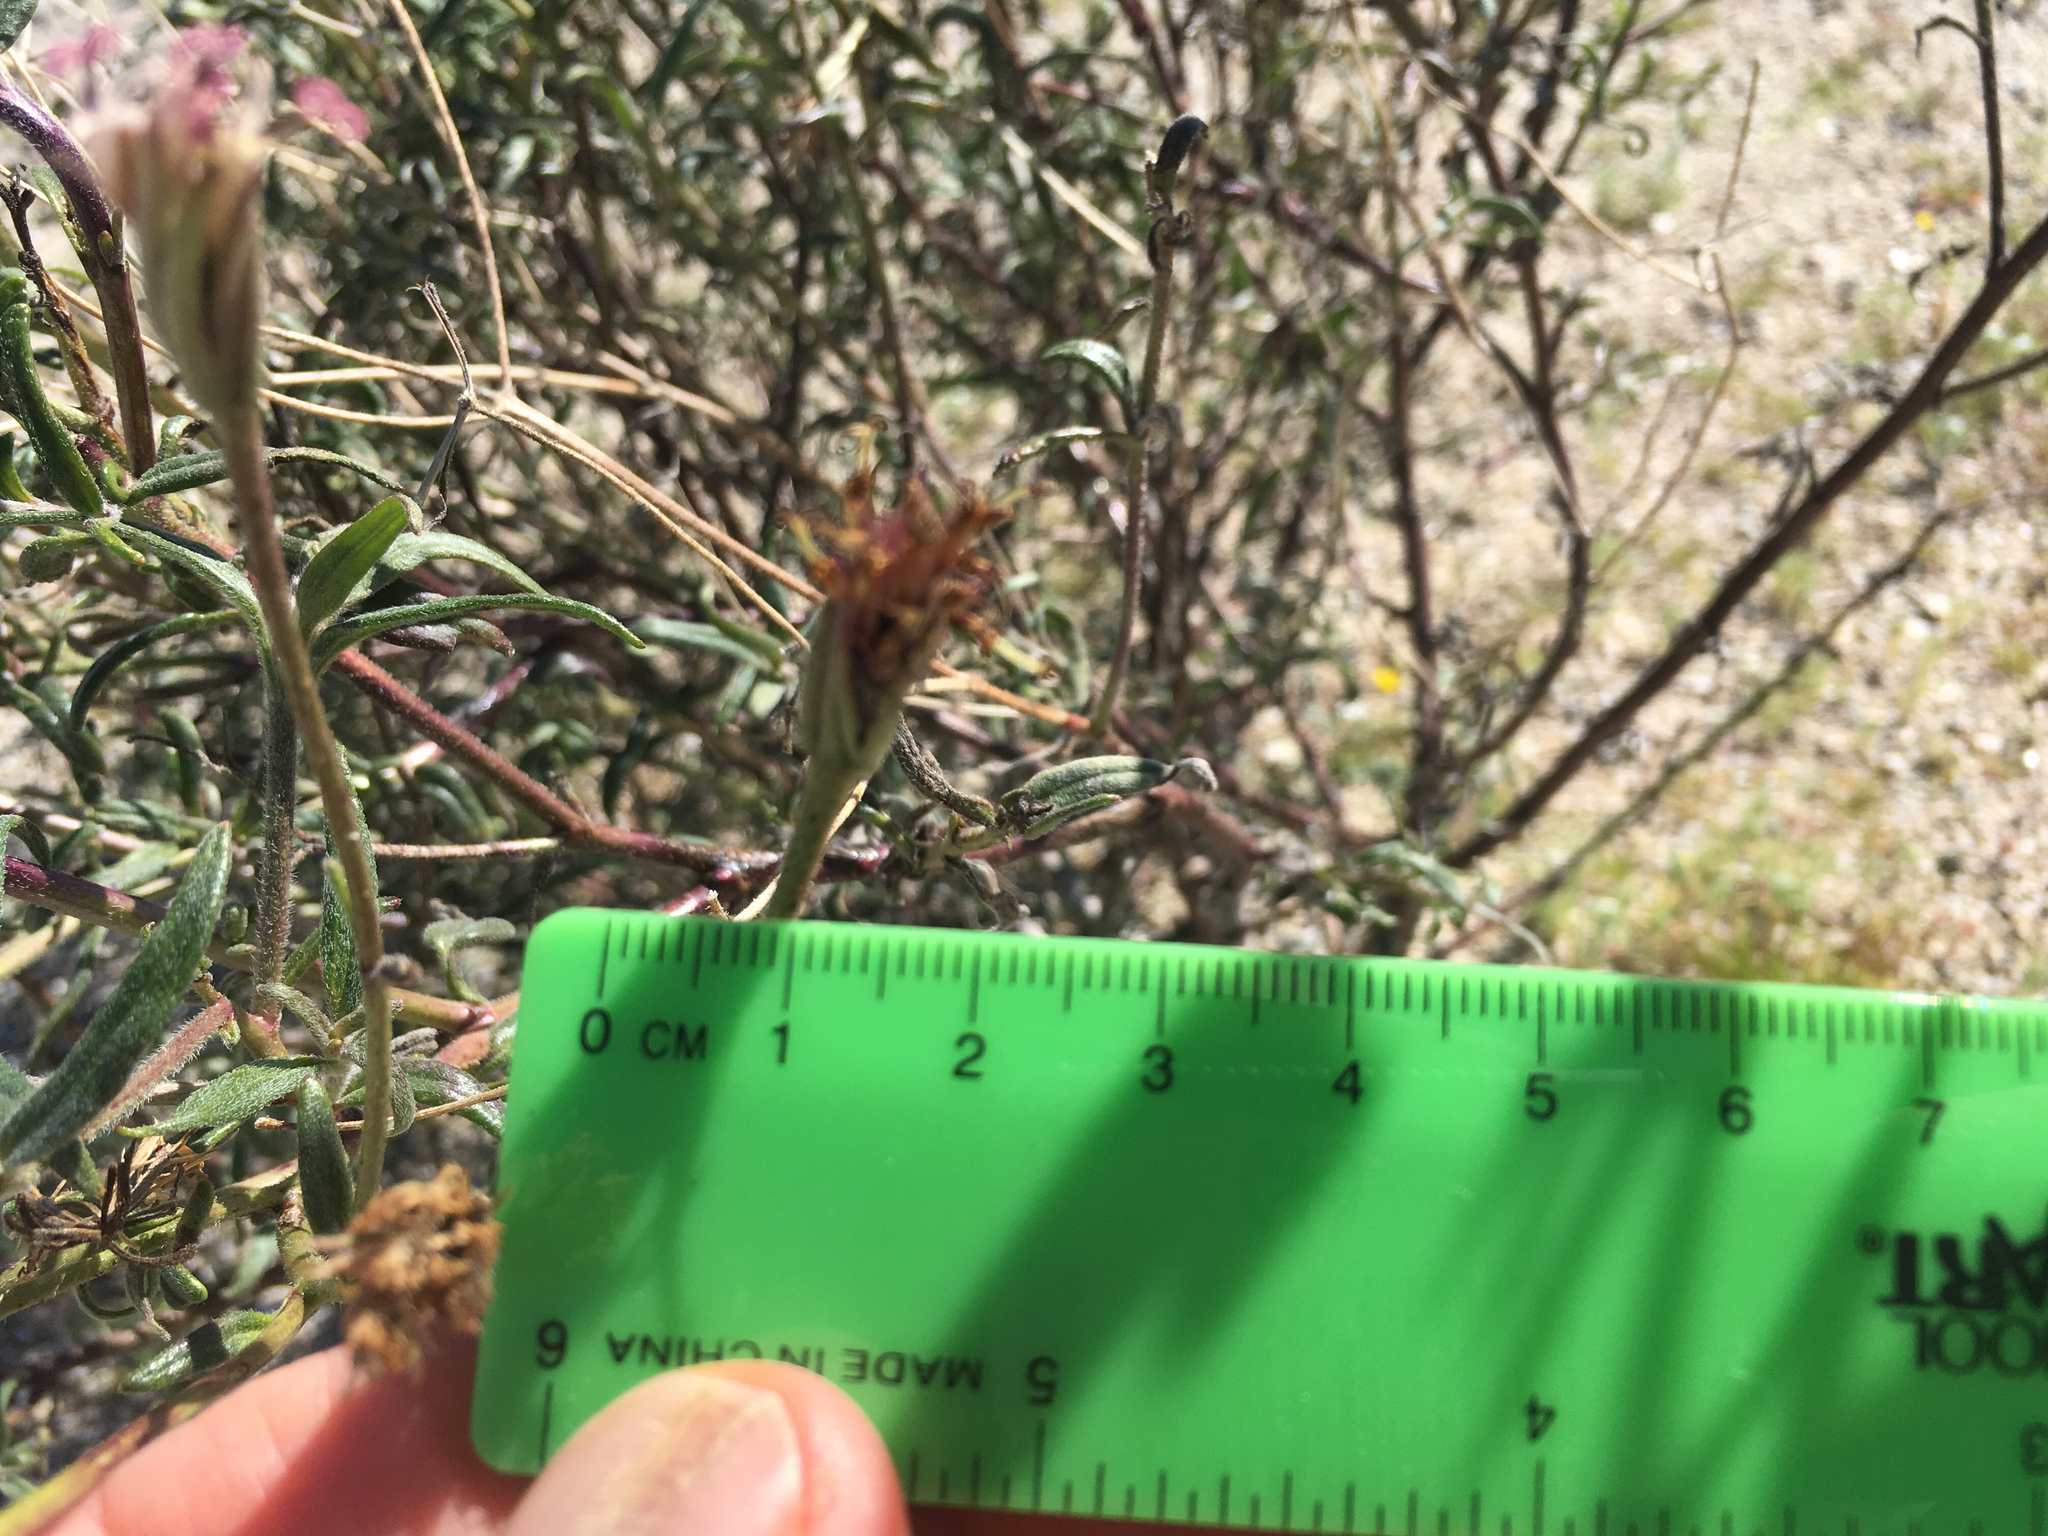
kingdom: Plantae
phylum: Tracheophyta
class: Magnoliopsida
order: Asterales
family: Asteraceae
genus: Palafoxia
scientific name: Palafoxia arida
